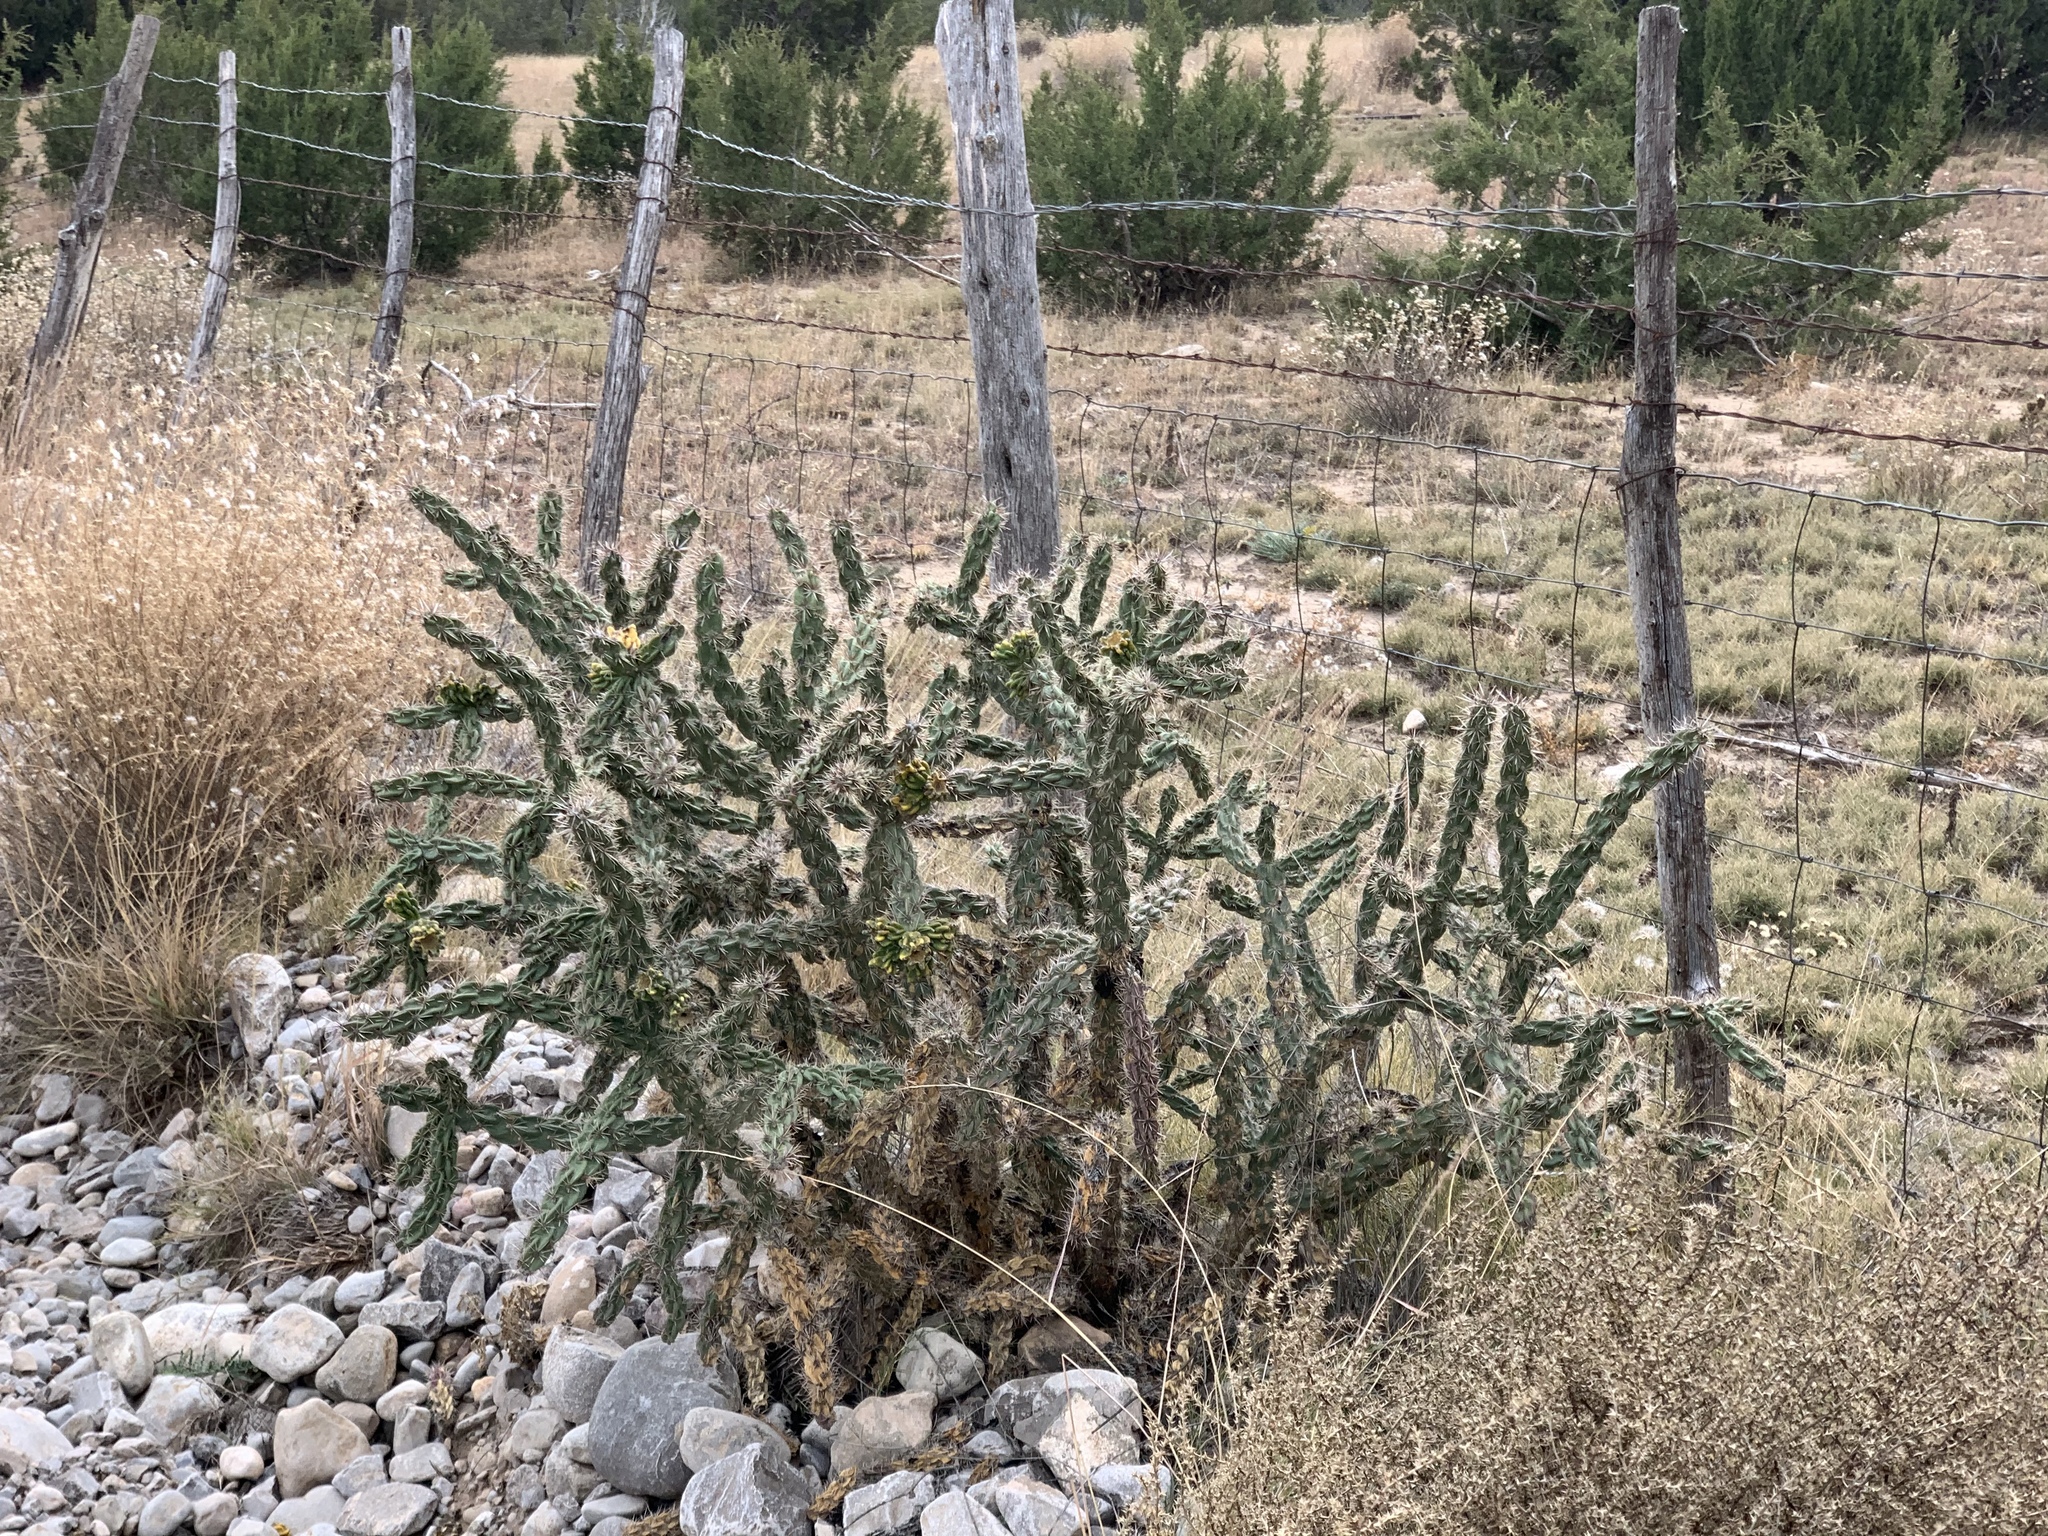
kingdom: Plantae
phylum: Tracheophyta
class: Magnoliopsida
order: Caryophyllales
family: Cactaceae
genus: Cylindropuntia
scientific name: Cylindropuntia imbricata
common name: Candelabrum cactus
